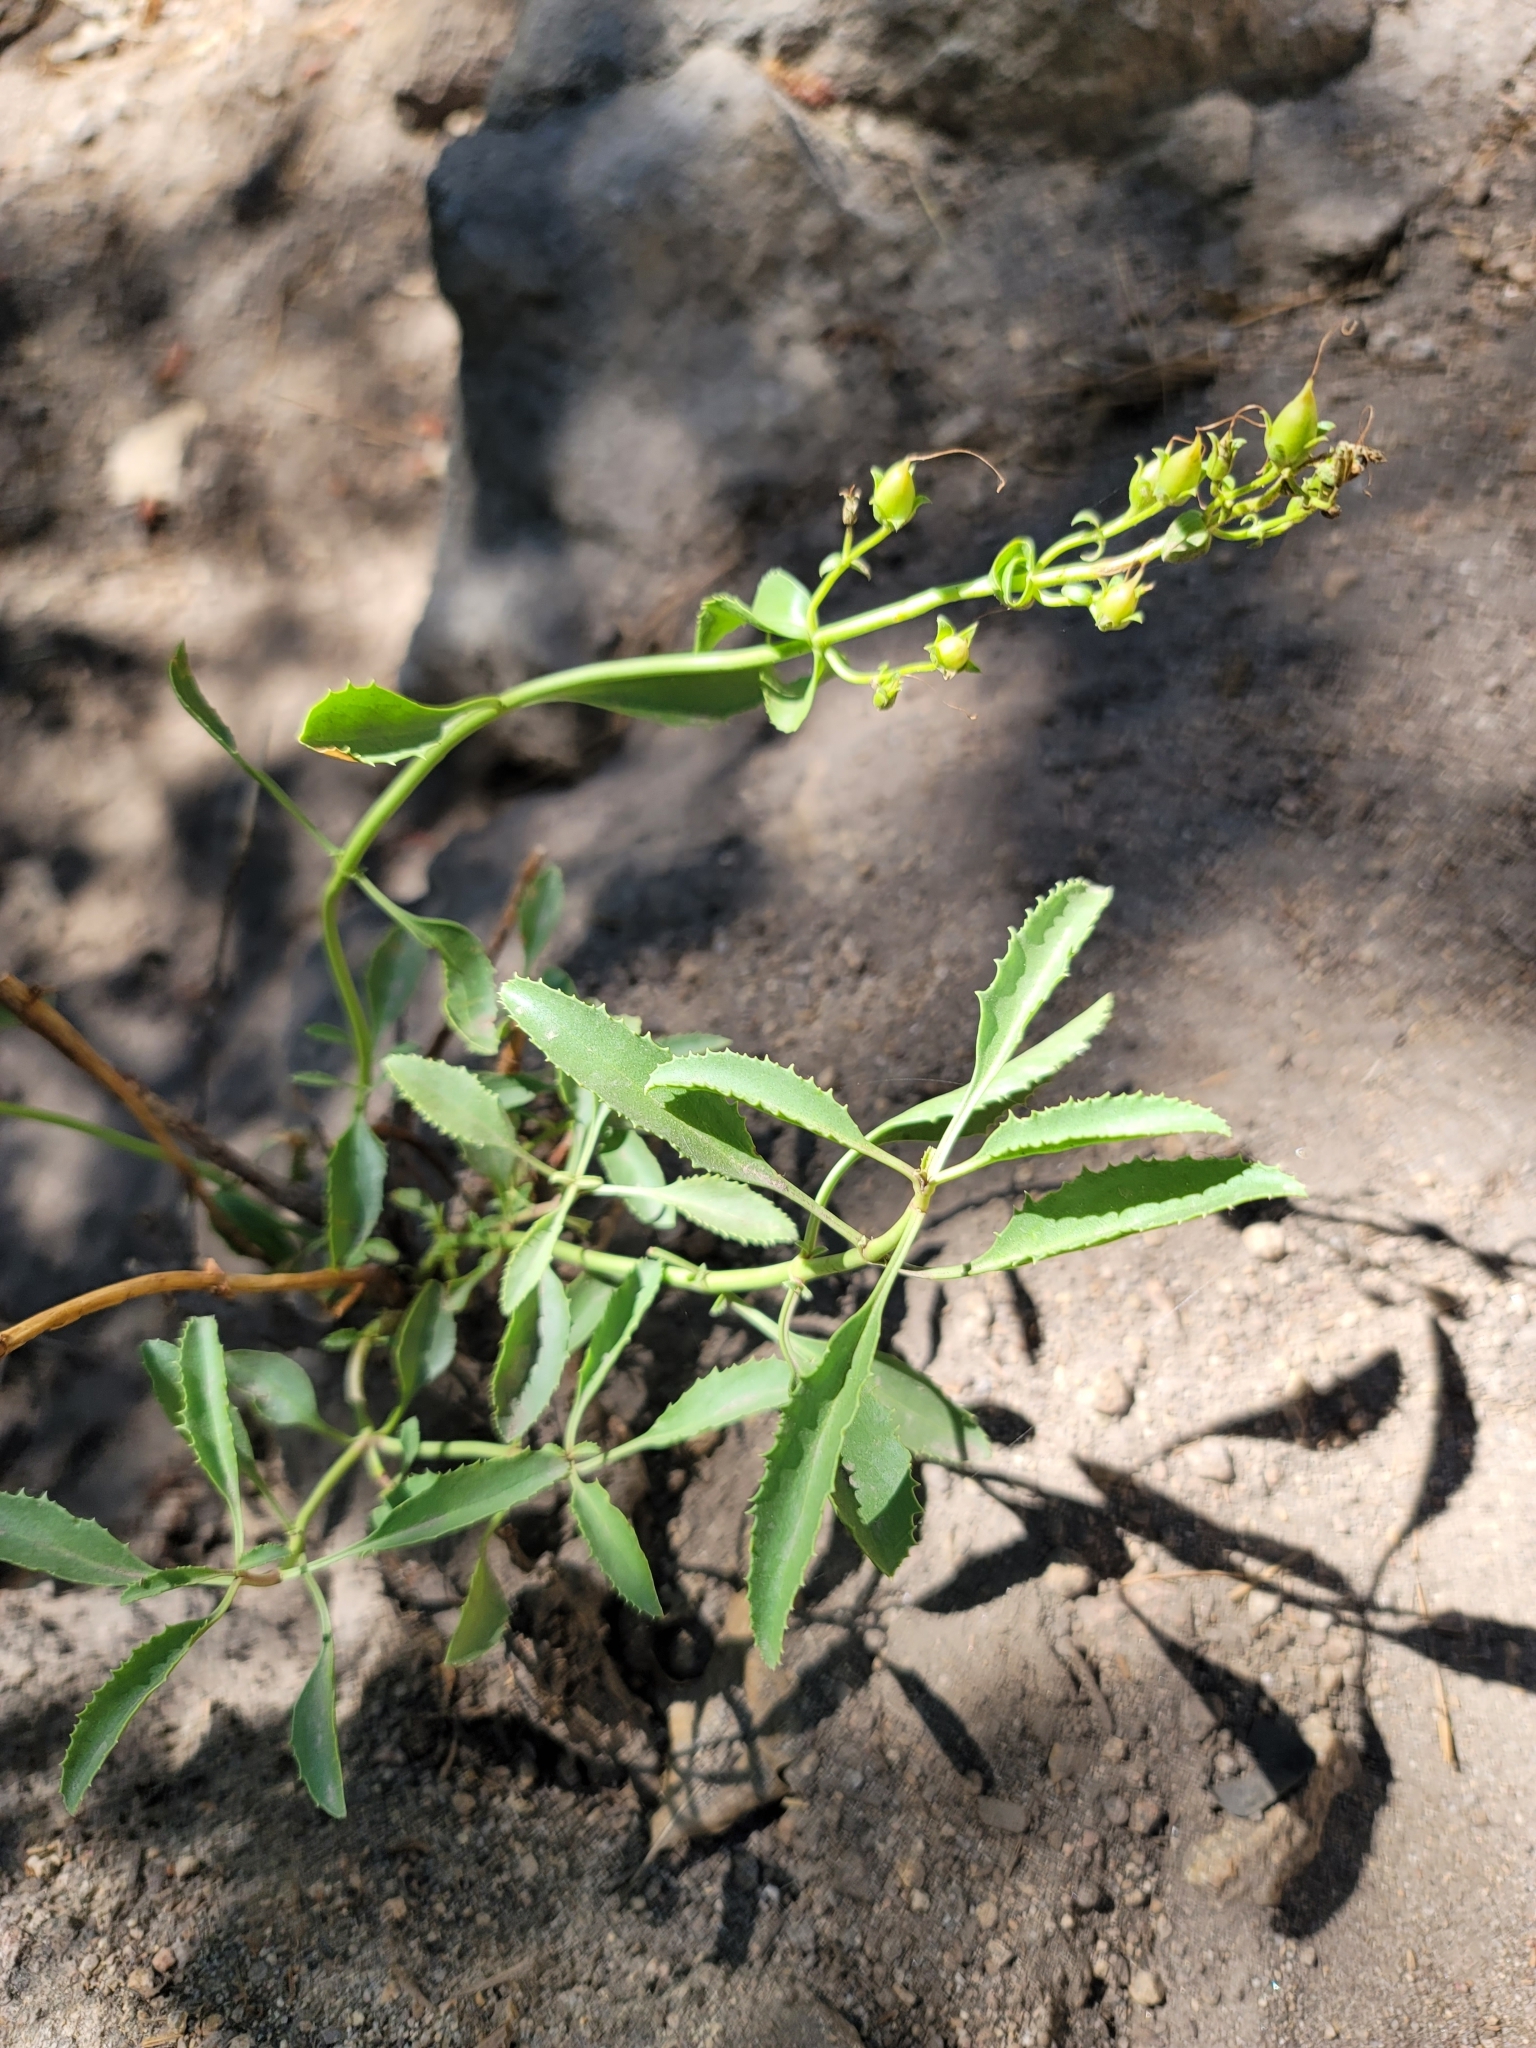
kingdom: Plantae
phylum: Tracheophyta
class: Magnoliopsida
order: Lamiales
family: Plantaginaceae
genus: Penstemon
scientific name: Penstemon grinnellii
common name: Grinnell's beardtongue
